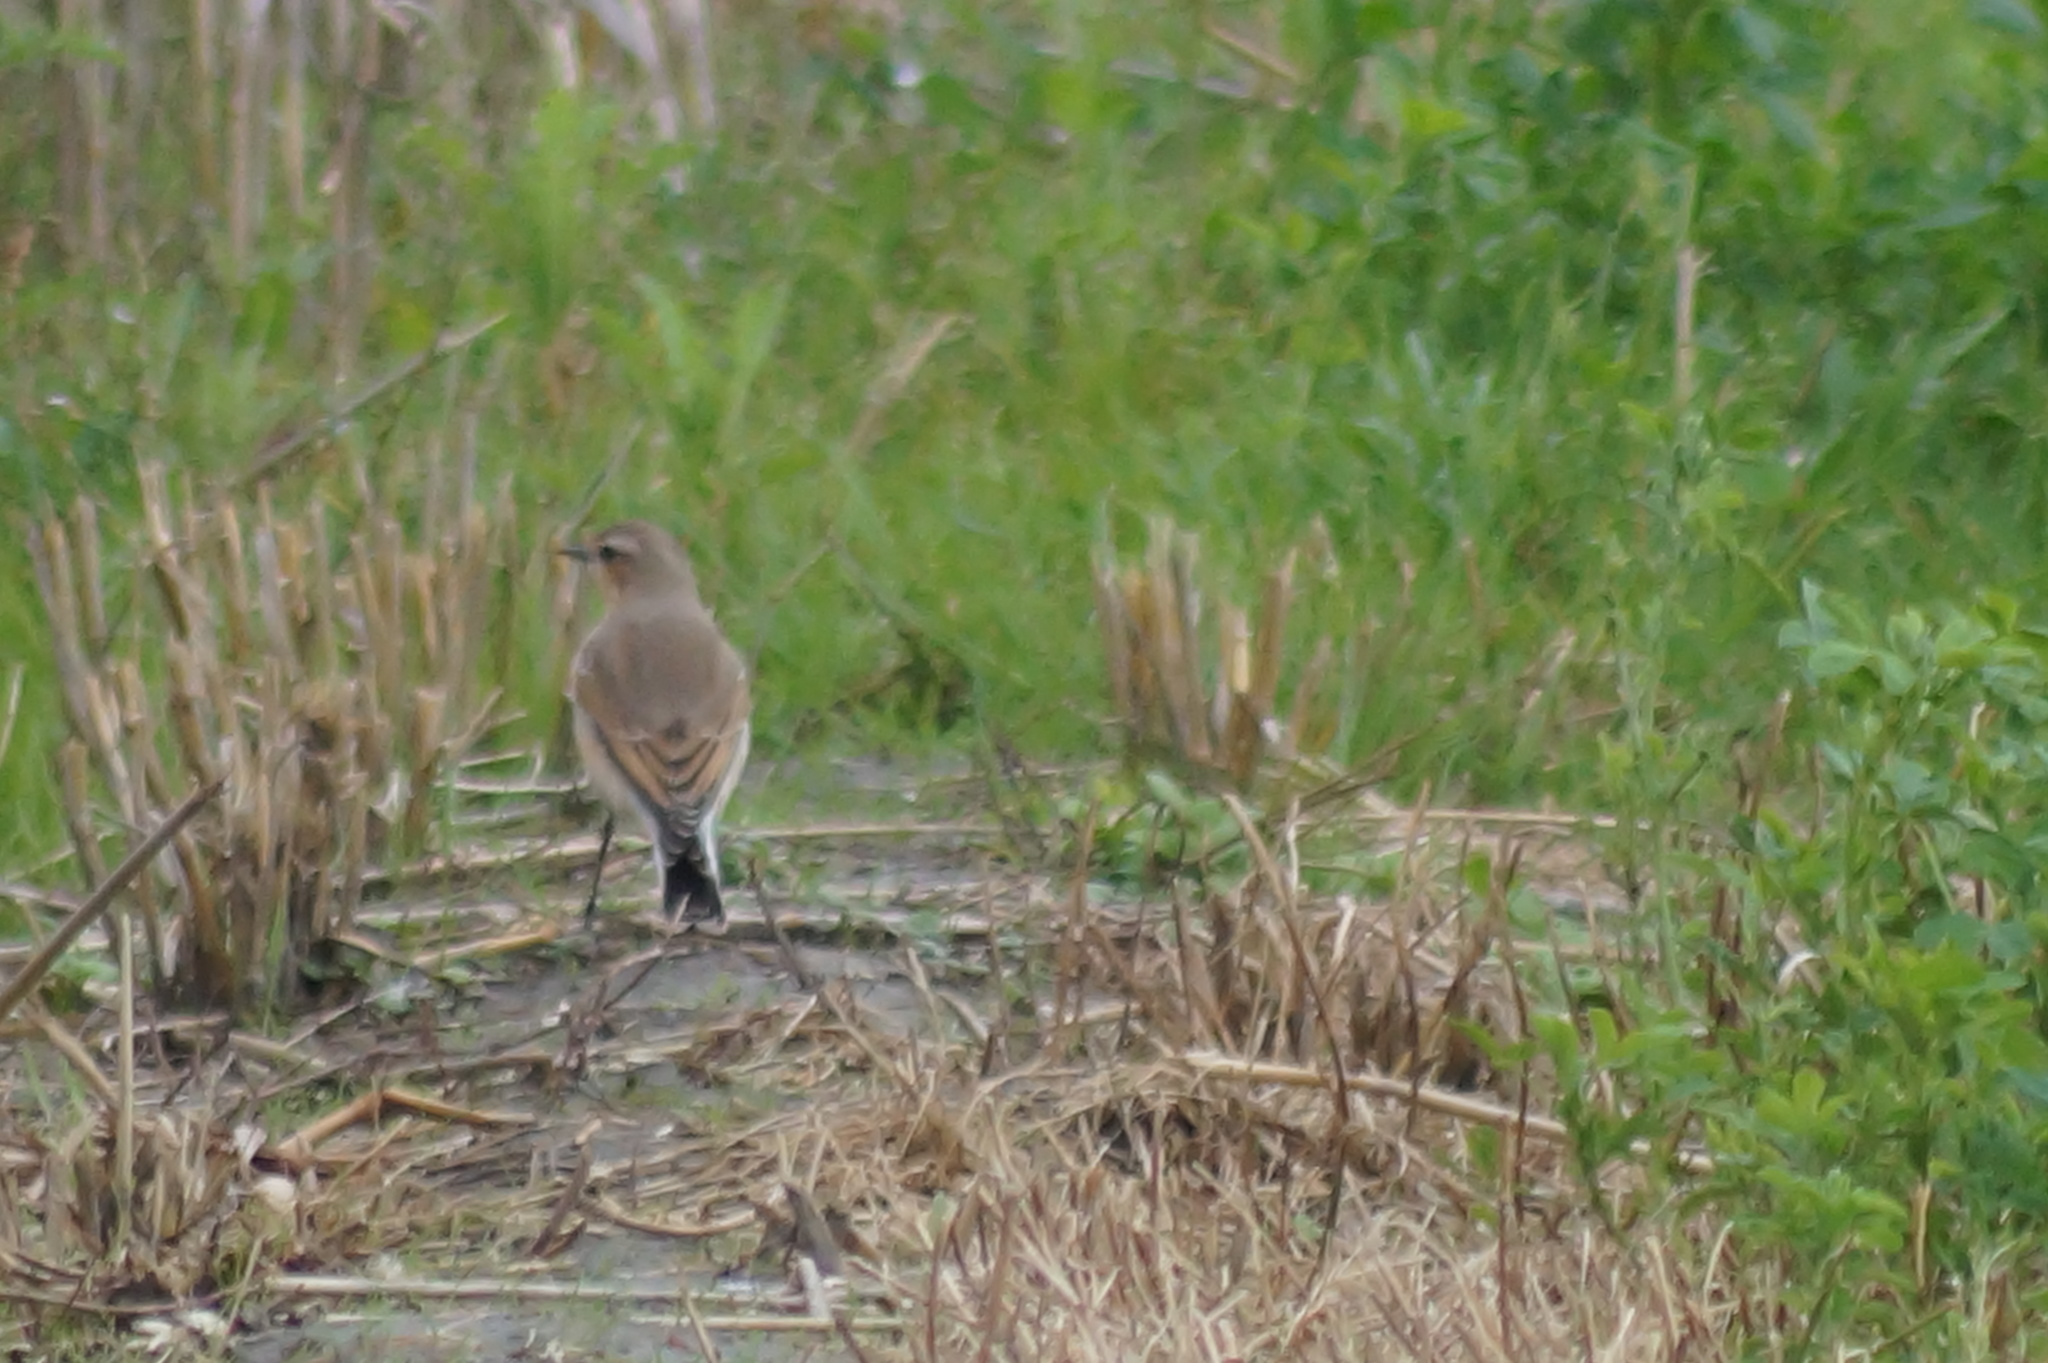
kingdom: Animalia
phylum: Chordata
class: Aves
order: Passeriformes
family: Muscicapidae
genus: Oenanthe
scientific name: Oenanthe oenanthe
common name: Northern wheatear
